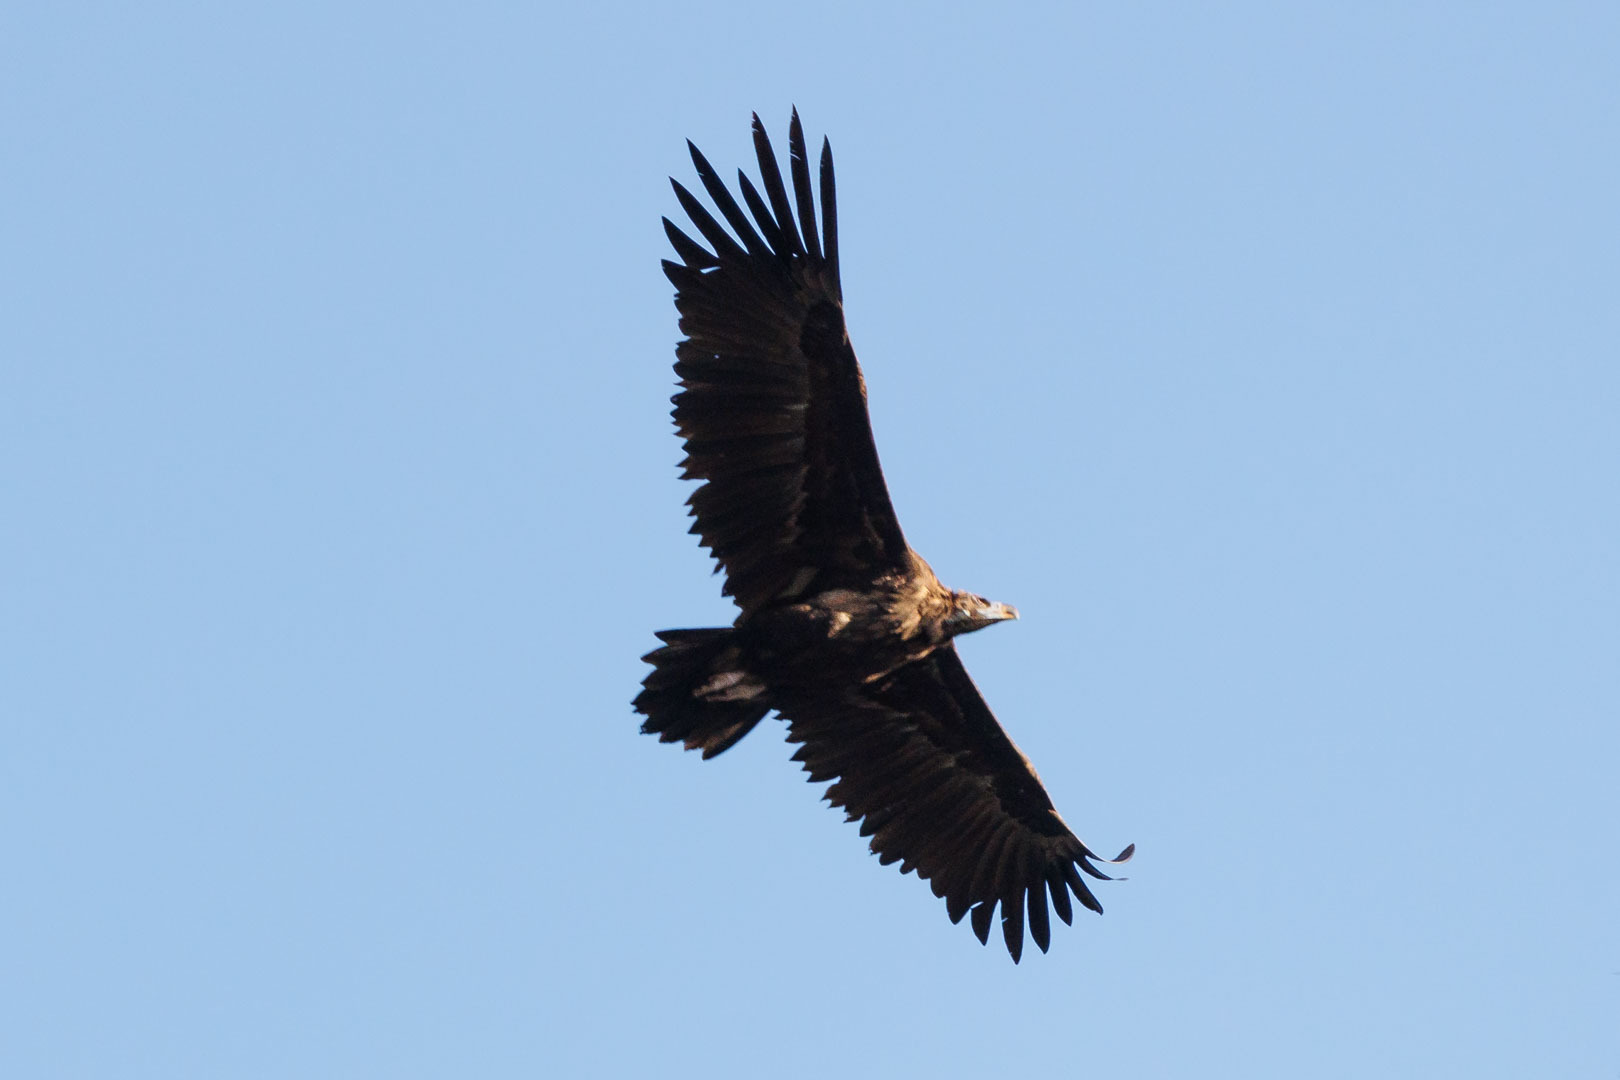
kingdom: Animalia
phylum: Chordata
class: Aves
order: Accipitriformes
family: Accipitridae
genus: Aegypius
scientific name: Aegypius monachus
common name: Cinereous vulture
